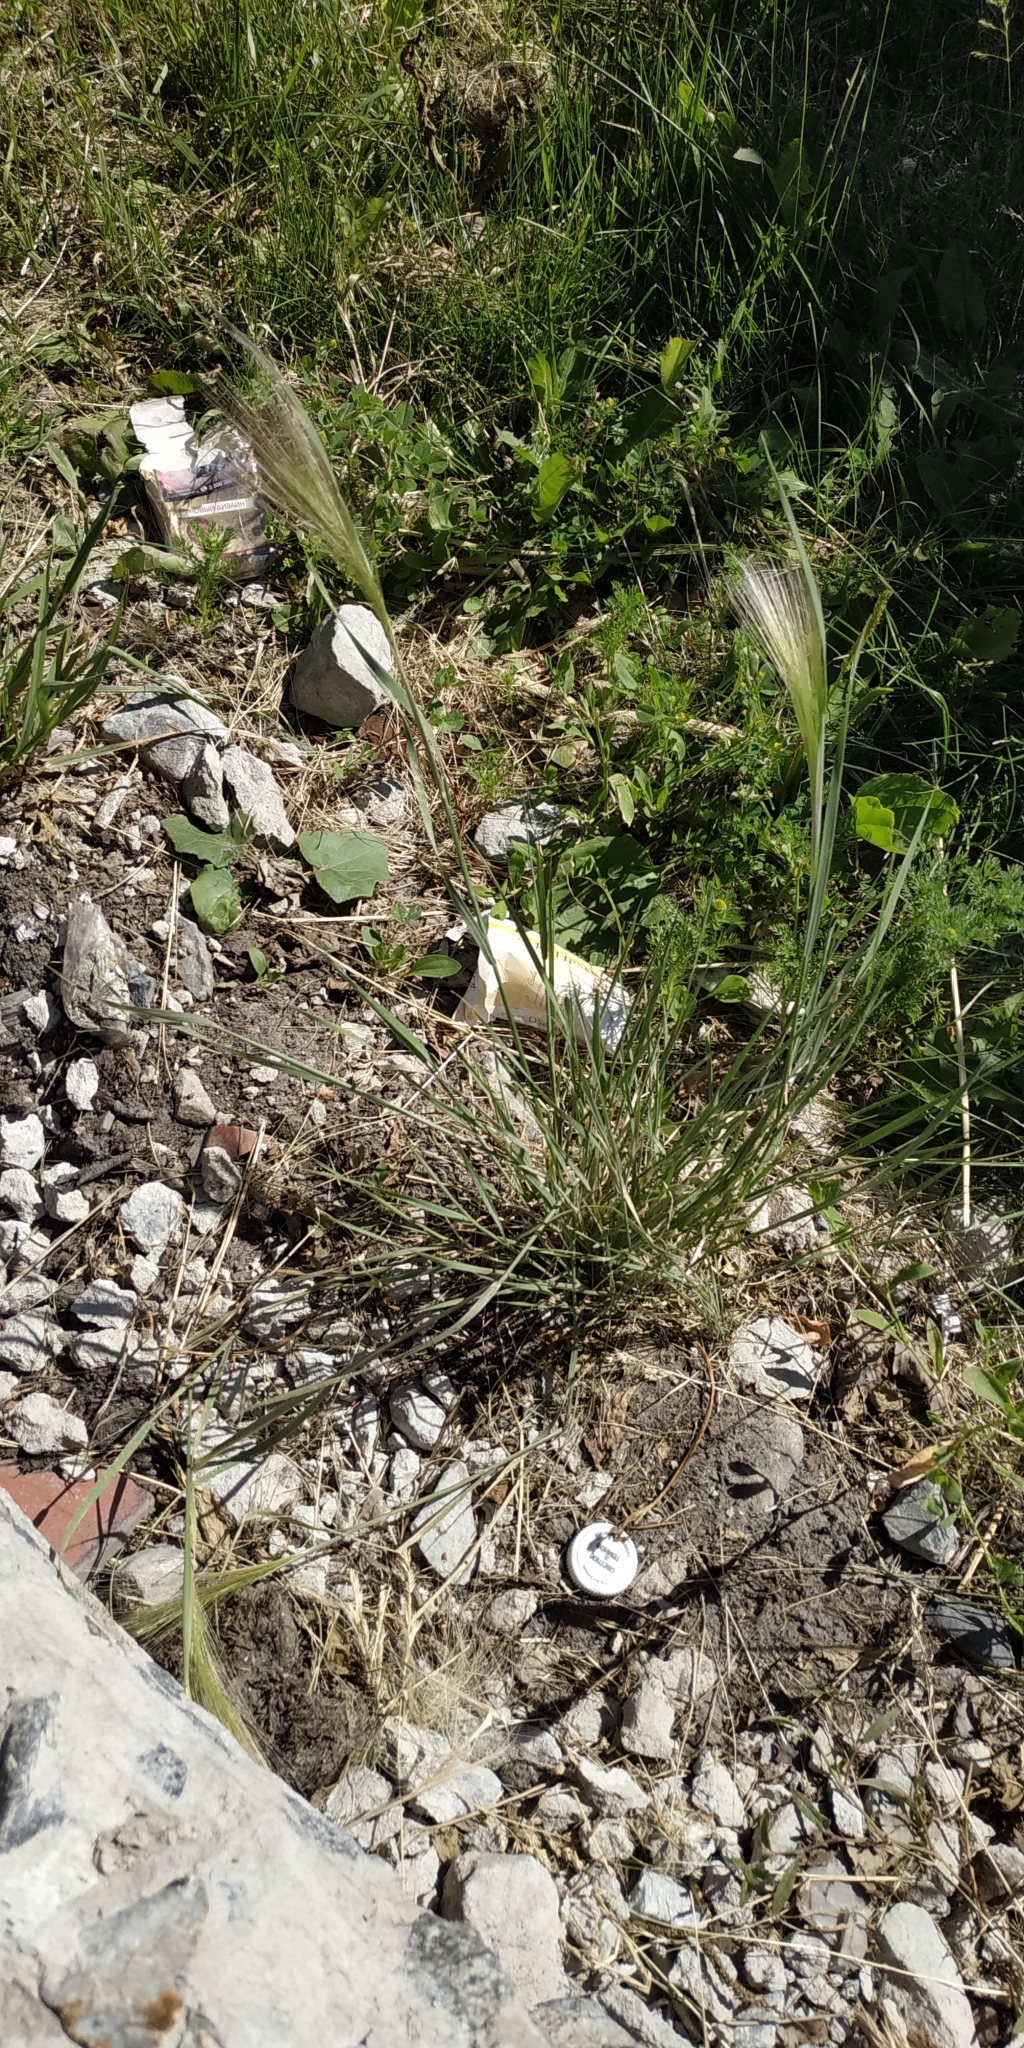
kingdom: Plantae
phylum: Tracheophyta
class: Liliopsida
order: Poales
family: Poaceae
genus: Hordeum
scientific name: Hordeum jubatum
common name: Foxtail barley
